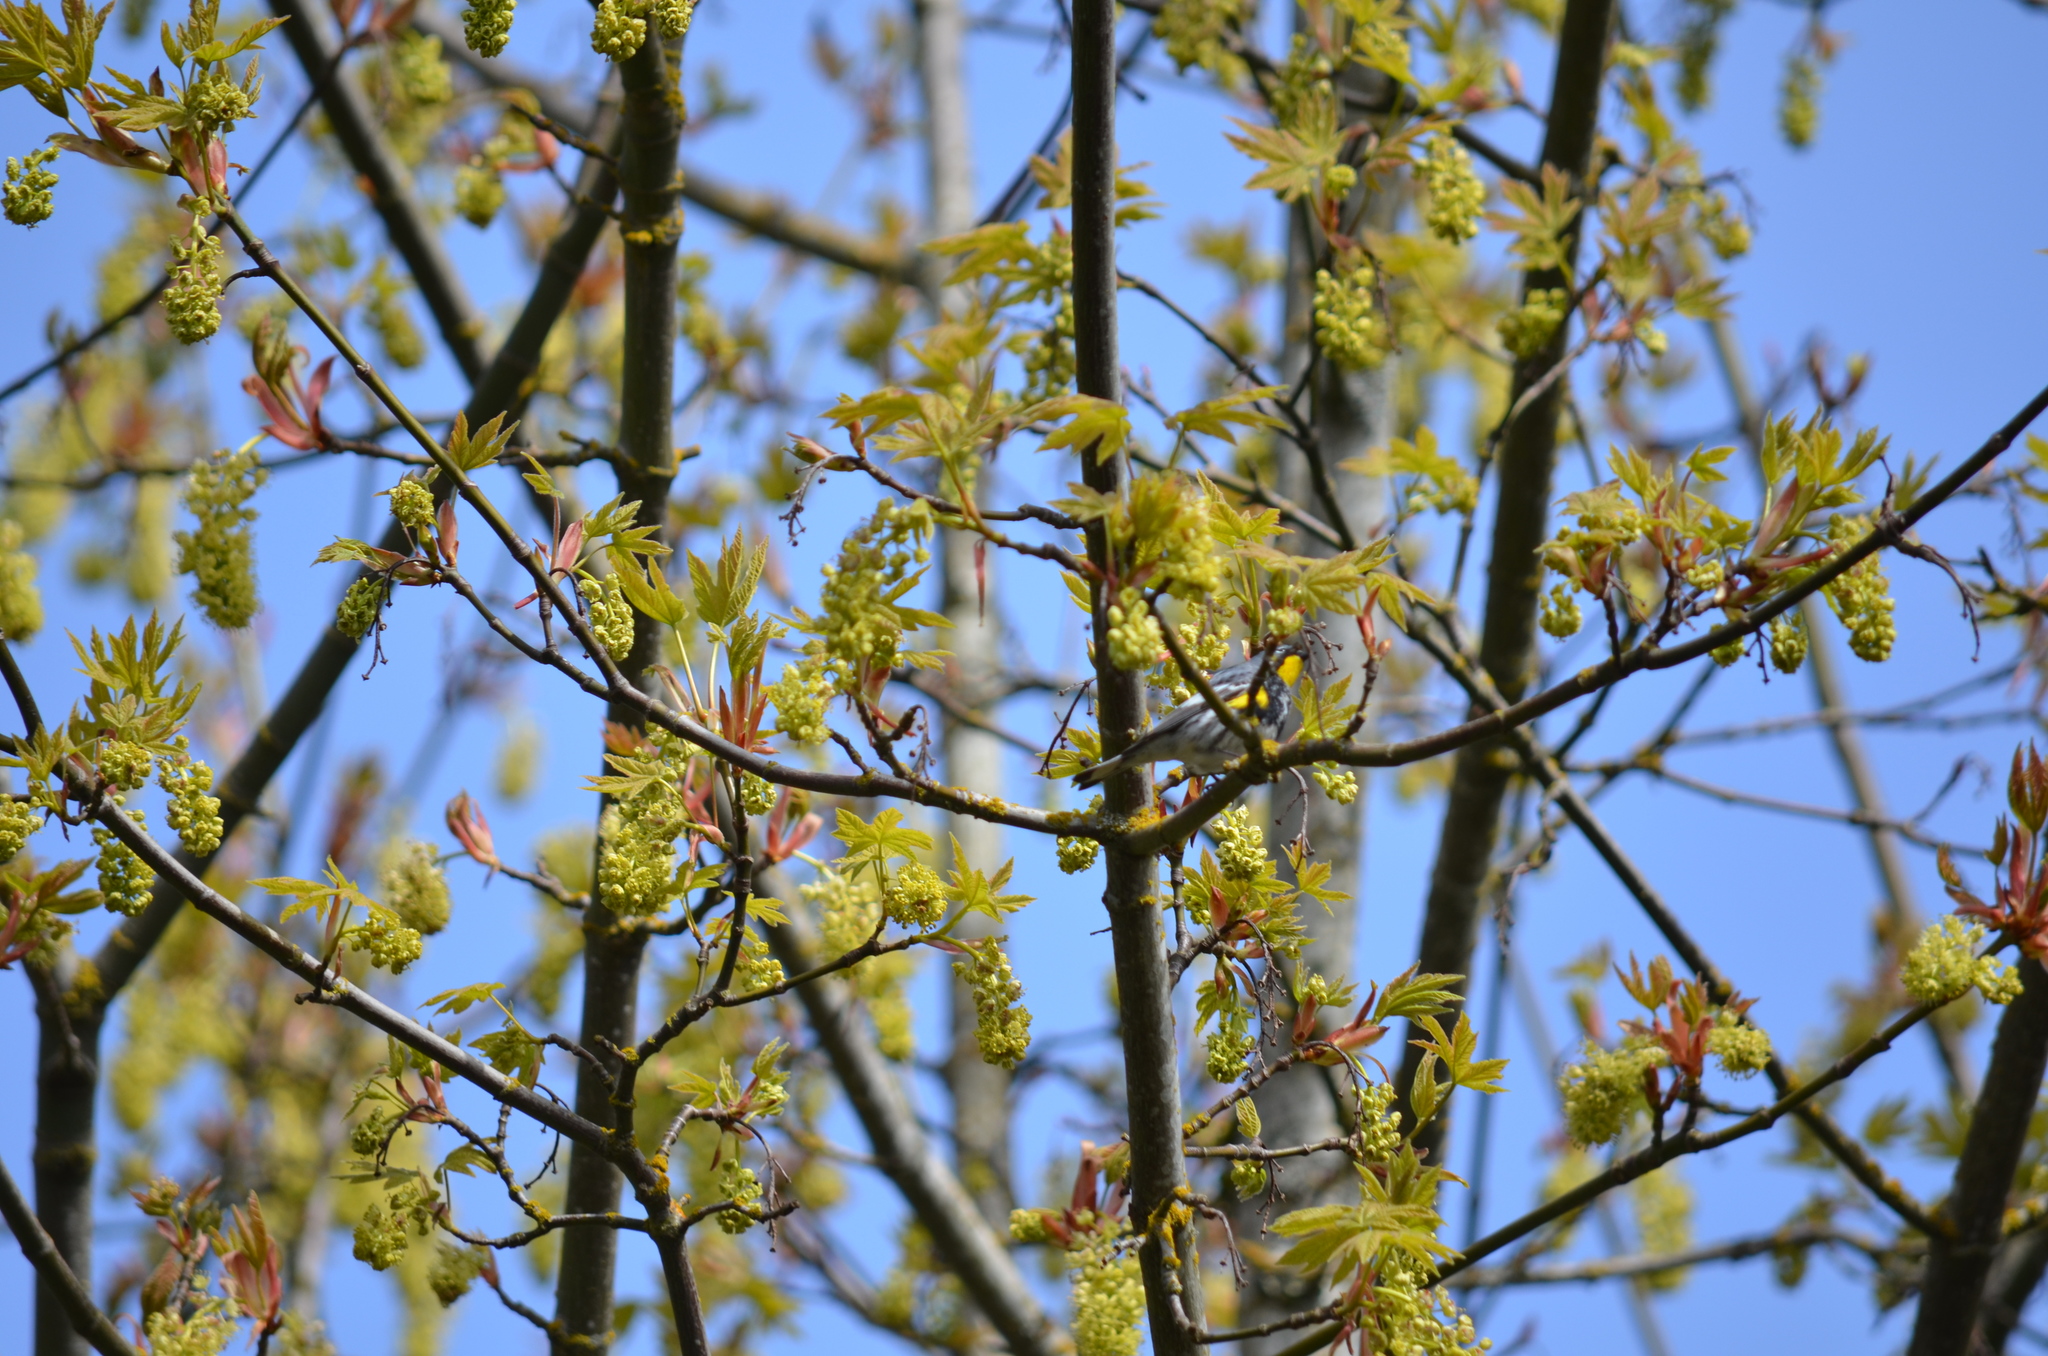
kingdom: Animalia
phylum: Chordata
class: Aves
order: Passeriformes
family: Parulidae
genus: Setophaga
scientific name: Setophaga coronata
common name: Myrtle warbler
